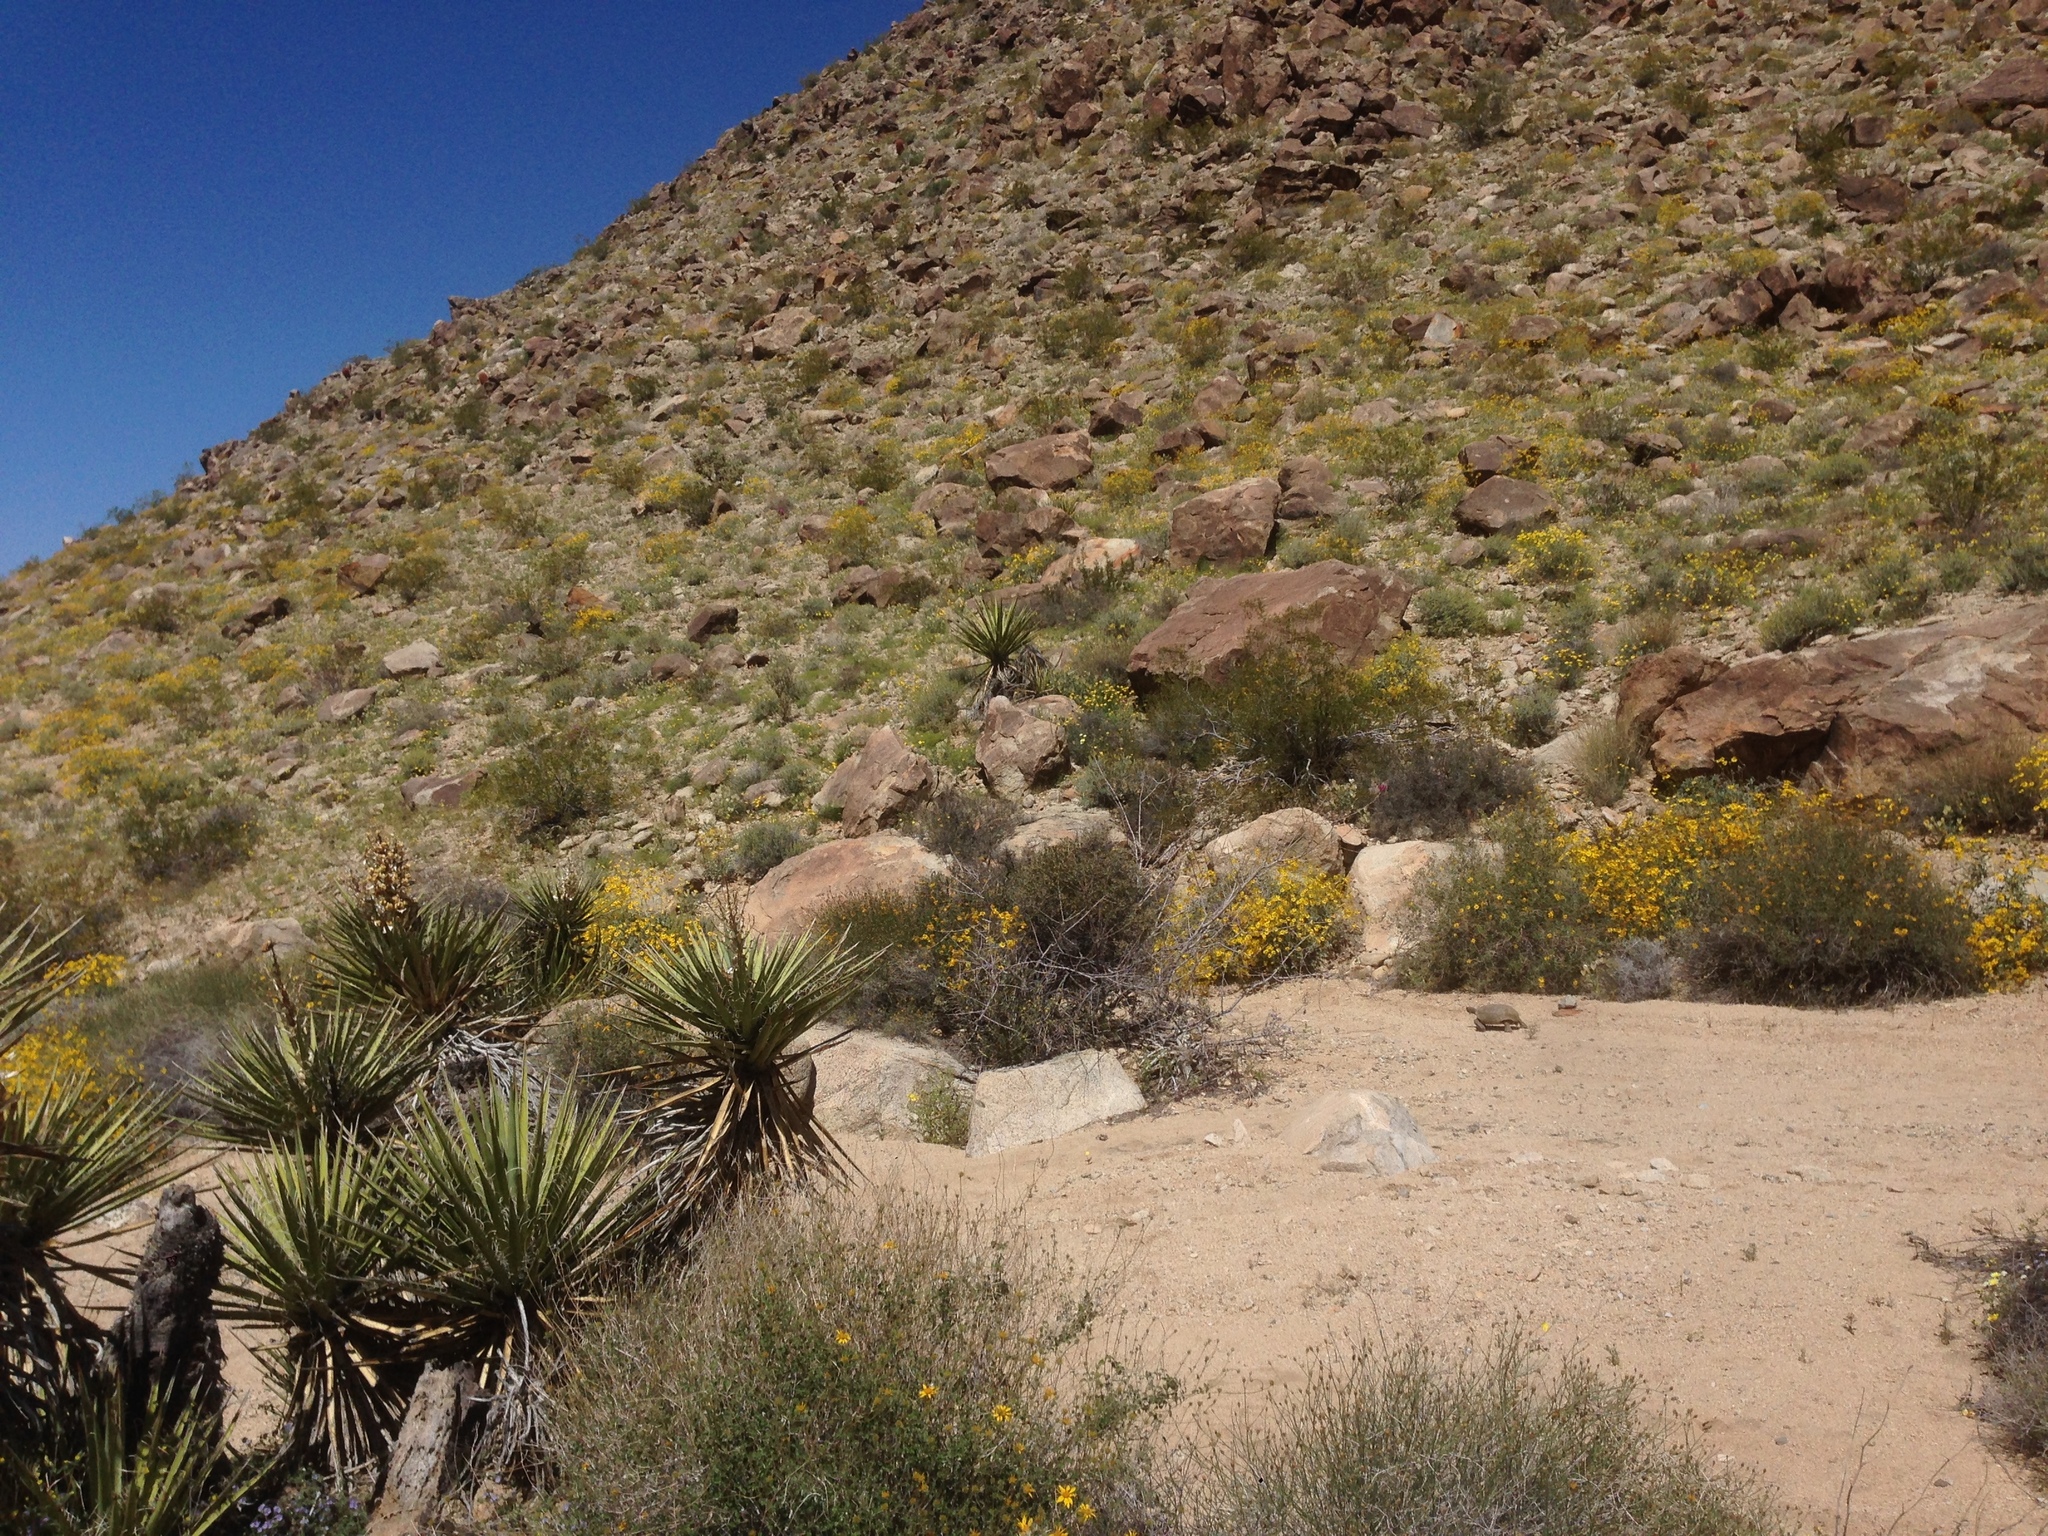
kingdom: Plantae
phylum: Tracheophyta
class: Liliopsida
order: Asparagales
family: Asparagaceae
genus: Yucca
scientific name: Yucca schidigera
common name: Mojave yucca
